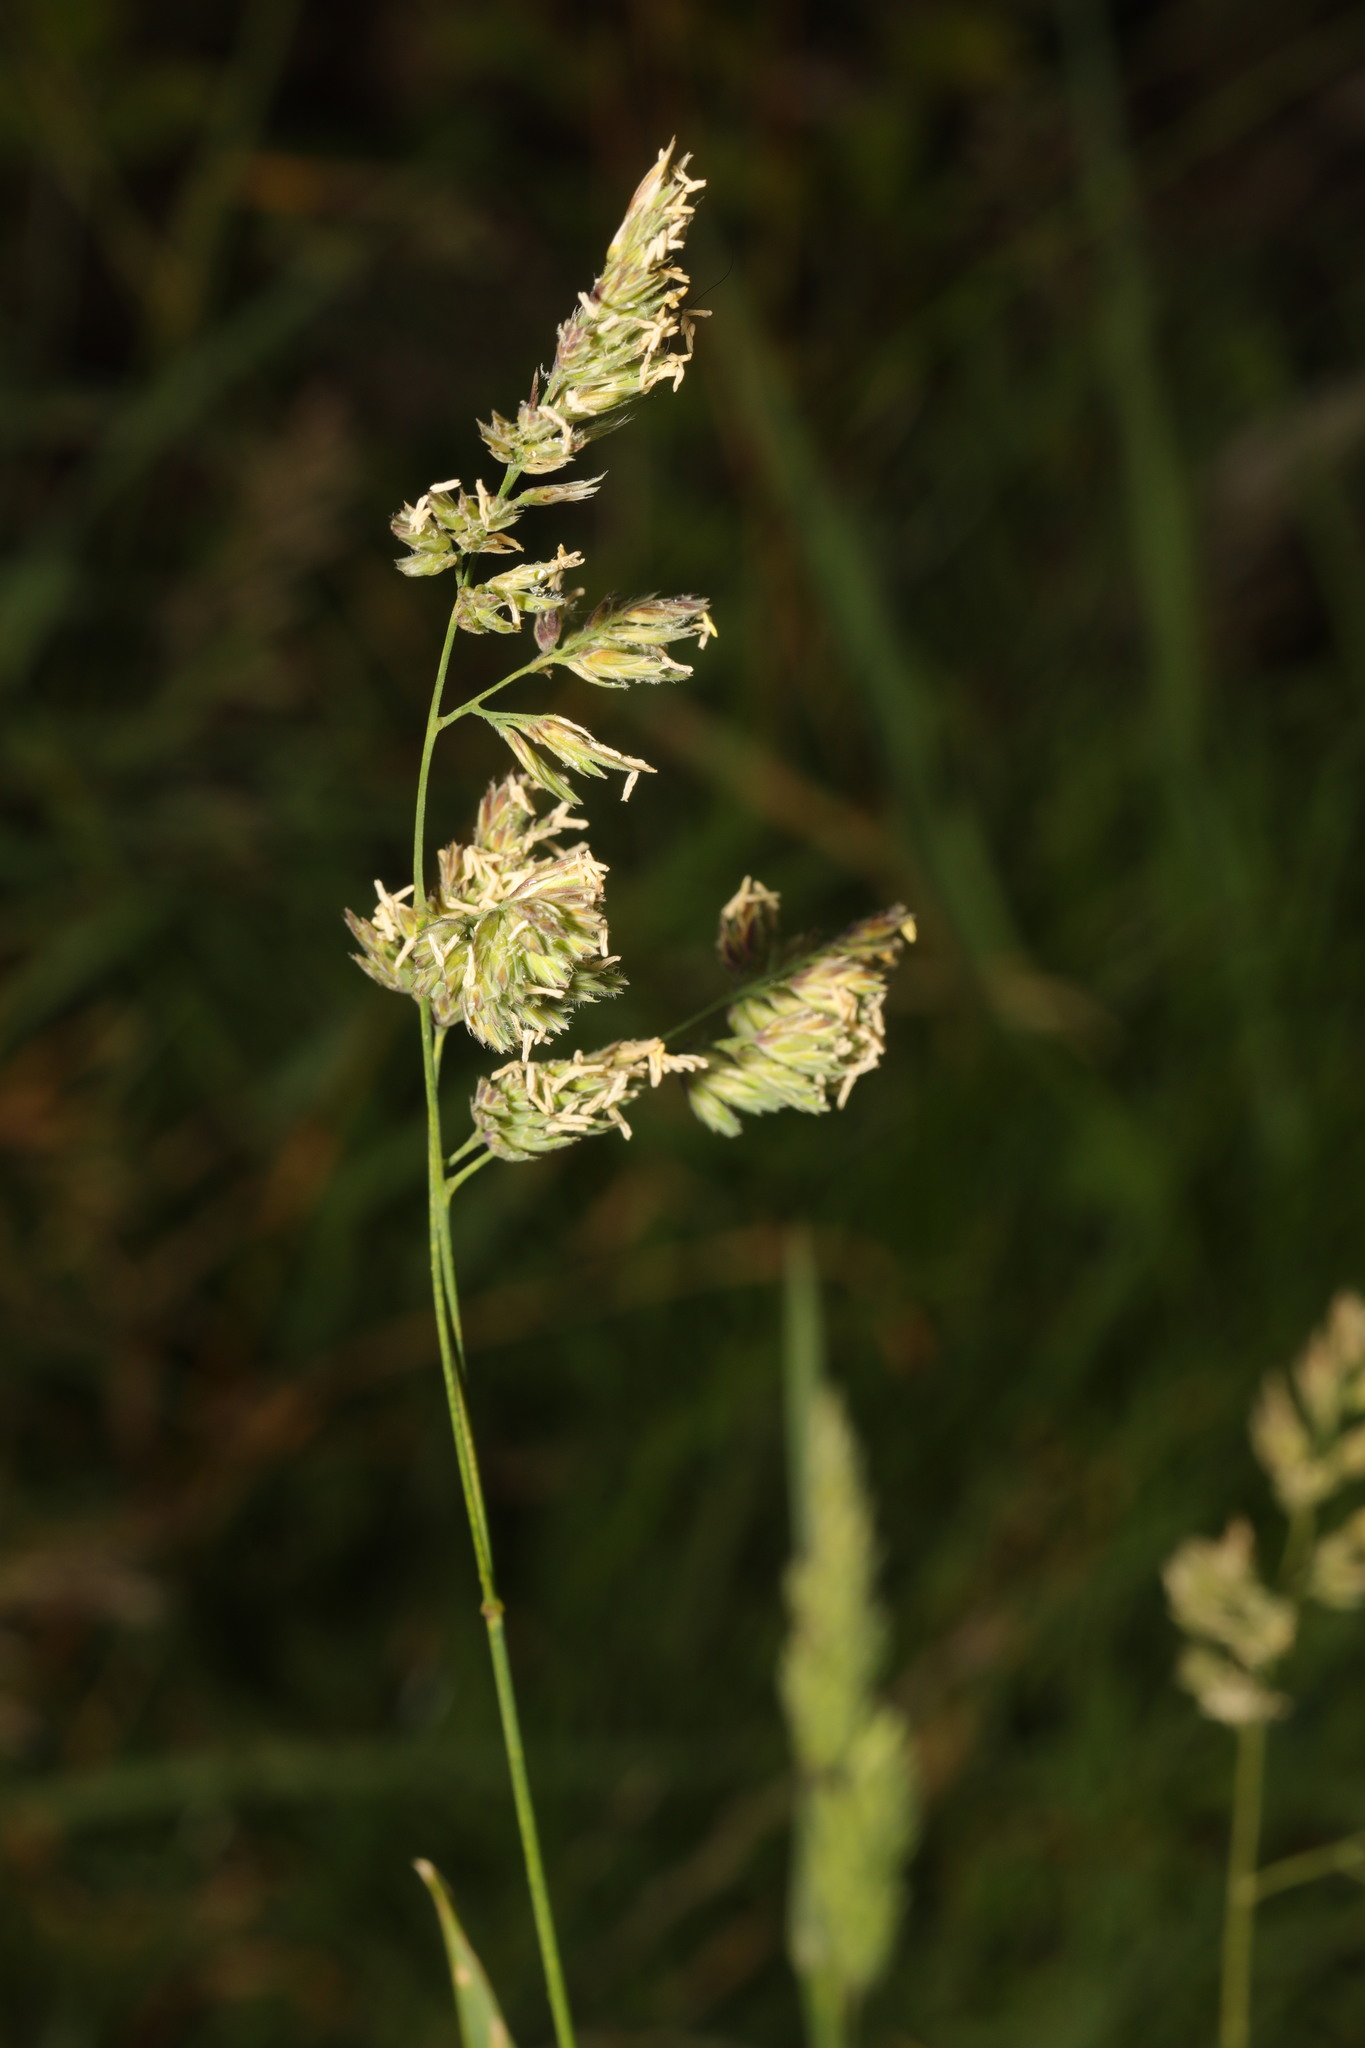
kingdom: Plantae
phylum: Tracheophyta
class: Liliopsida
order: Poales
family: Poaceae
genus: Dactylis
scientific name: Dactylis glomerata
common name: Orchardgrass
